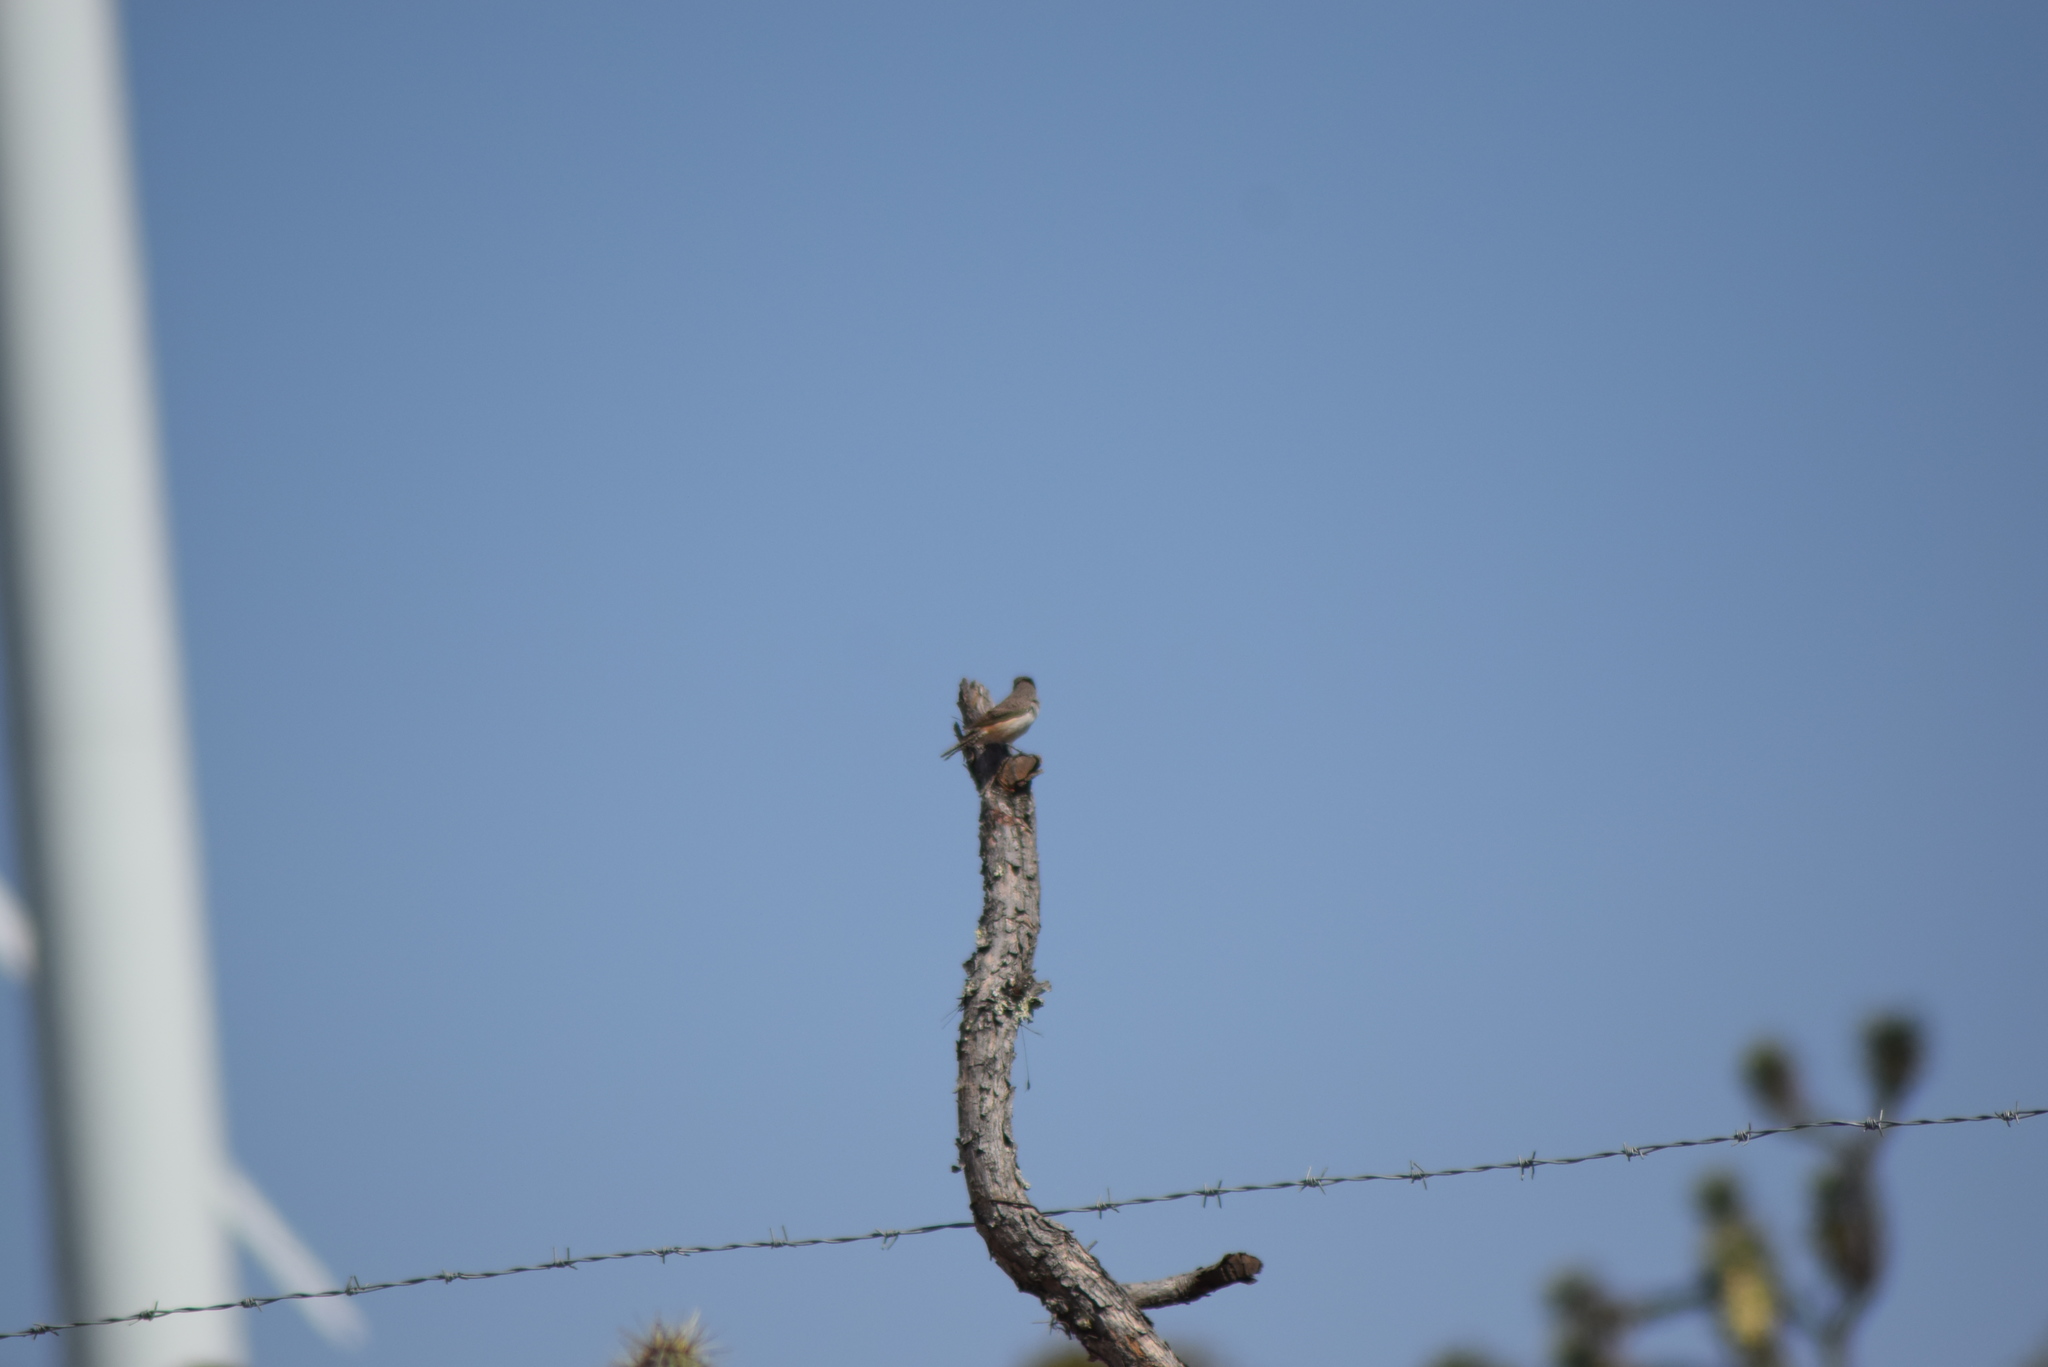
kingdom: Animalia
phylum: Chordata
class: Aves
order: Passeriformes
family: Troglodytidae
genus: Salpinctes
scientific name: Salpinctes obsoletus
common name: Rock wren
